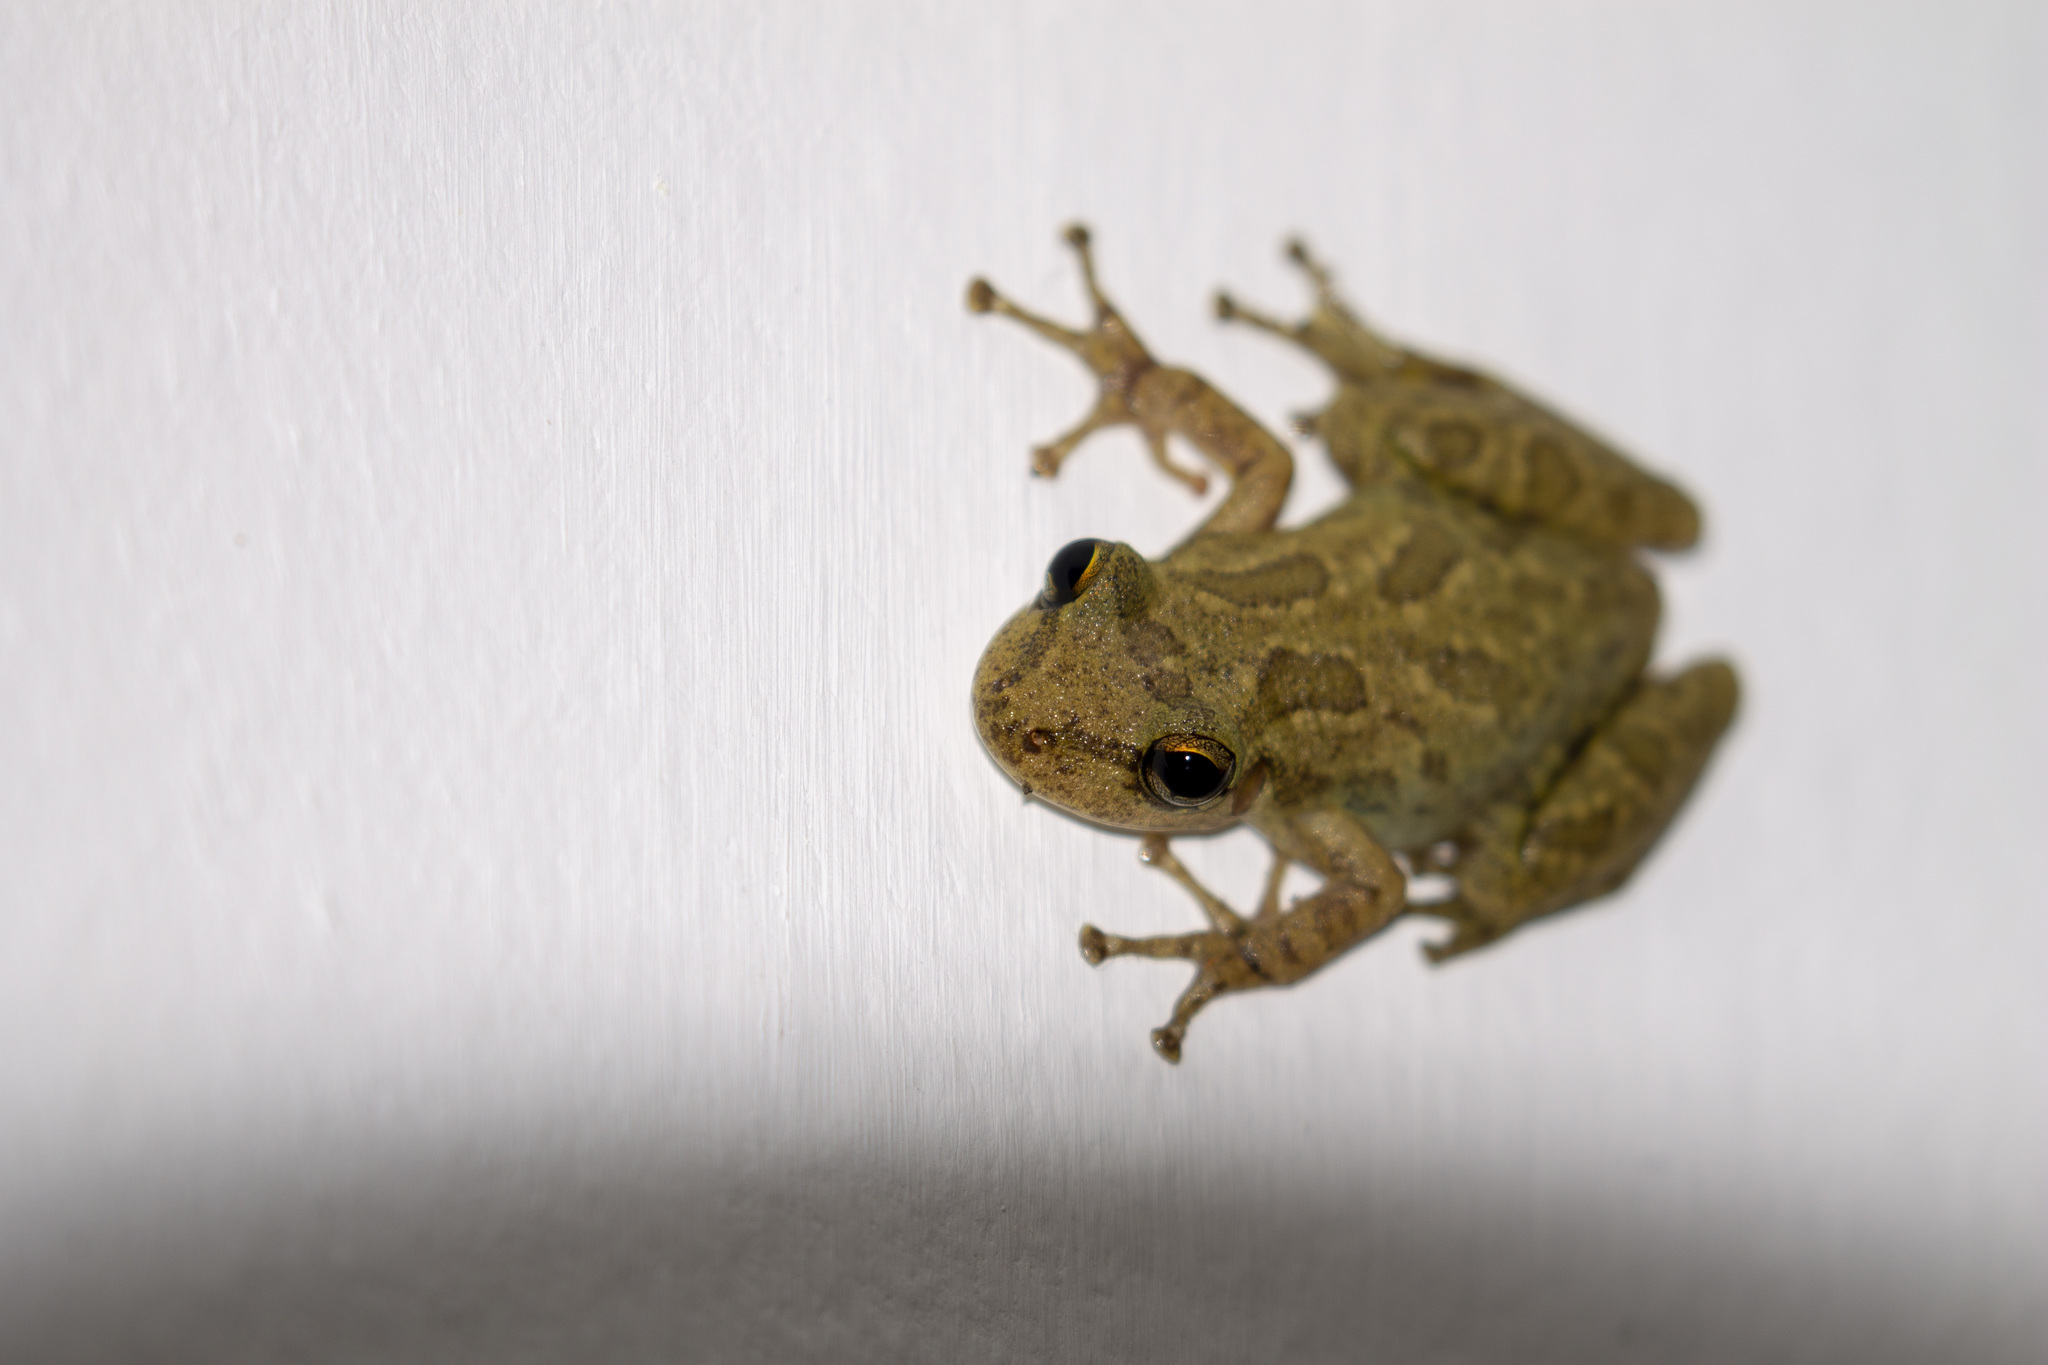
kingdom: Animalia
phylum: Chordata
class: Amphibia
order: Anura
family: Hylidae
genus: Scinax
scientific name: Scinax x-signatus
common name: Venezuela snouted treefrog
